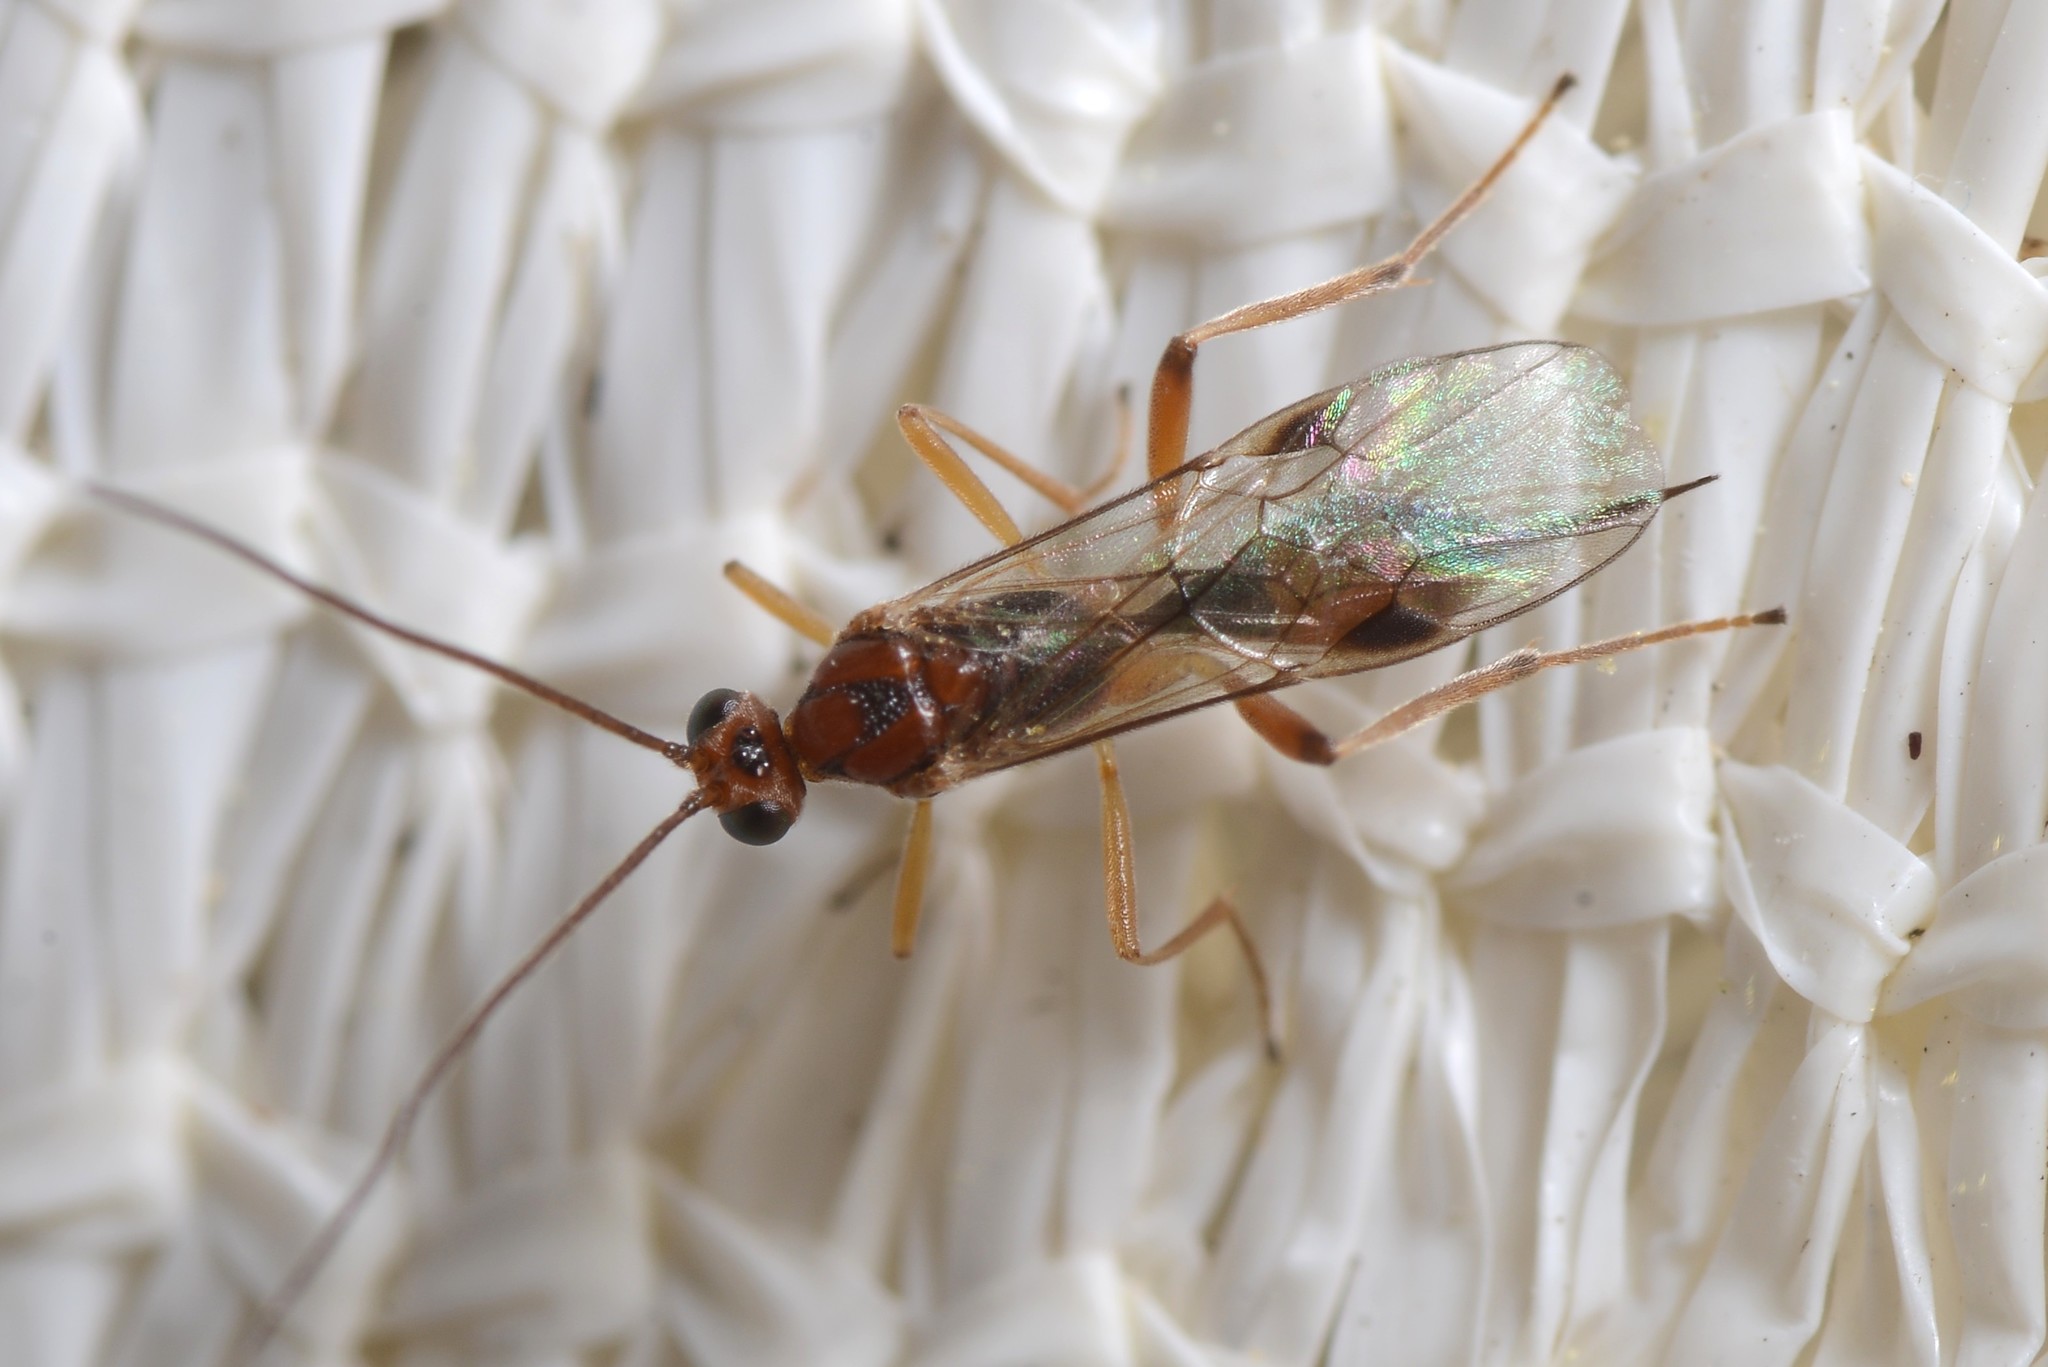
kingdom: Animalia
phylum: Arthropoda
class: Insecta
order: Hymenoptera
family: Braconidae
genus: Meteorus
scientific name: Meteorus pulchricornis
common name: Braconid wasp
